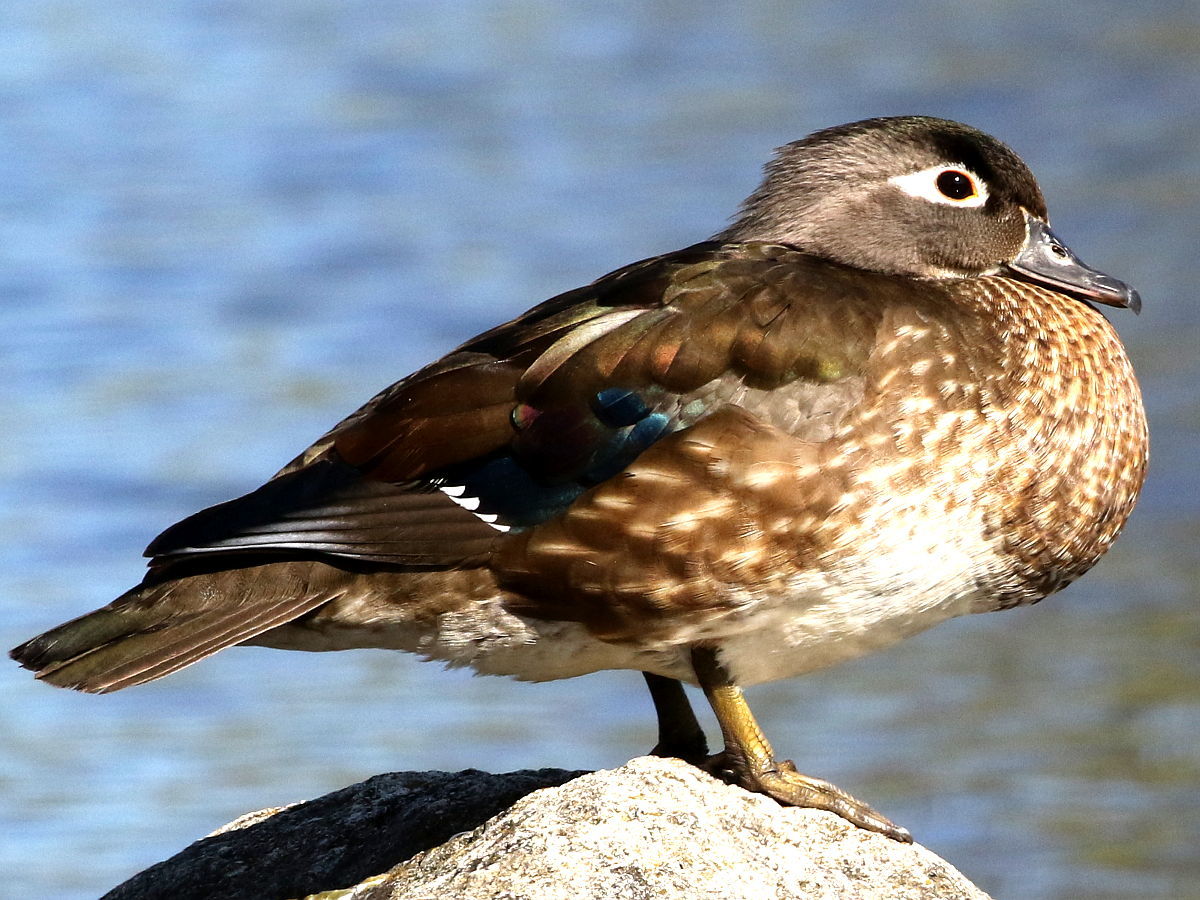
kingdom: Animalia
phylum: Chordata
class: Aves
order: Anseriformes
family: Anatidae
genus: Aix
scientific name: Aix sponsa
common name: Wood duck
